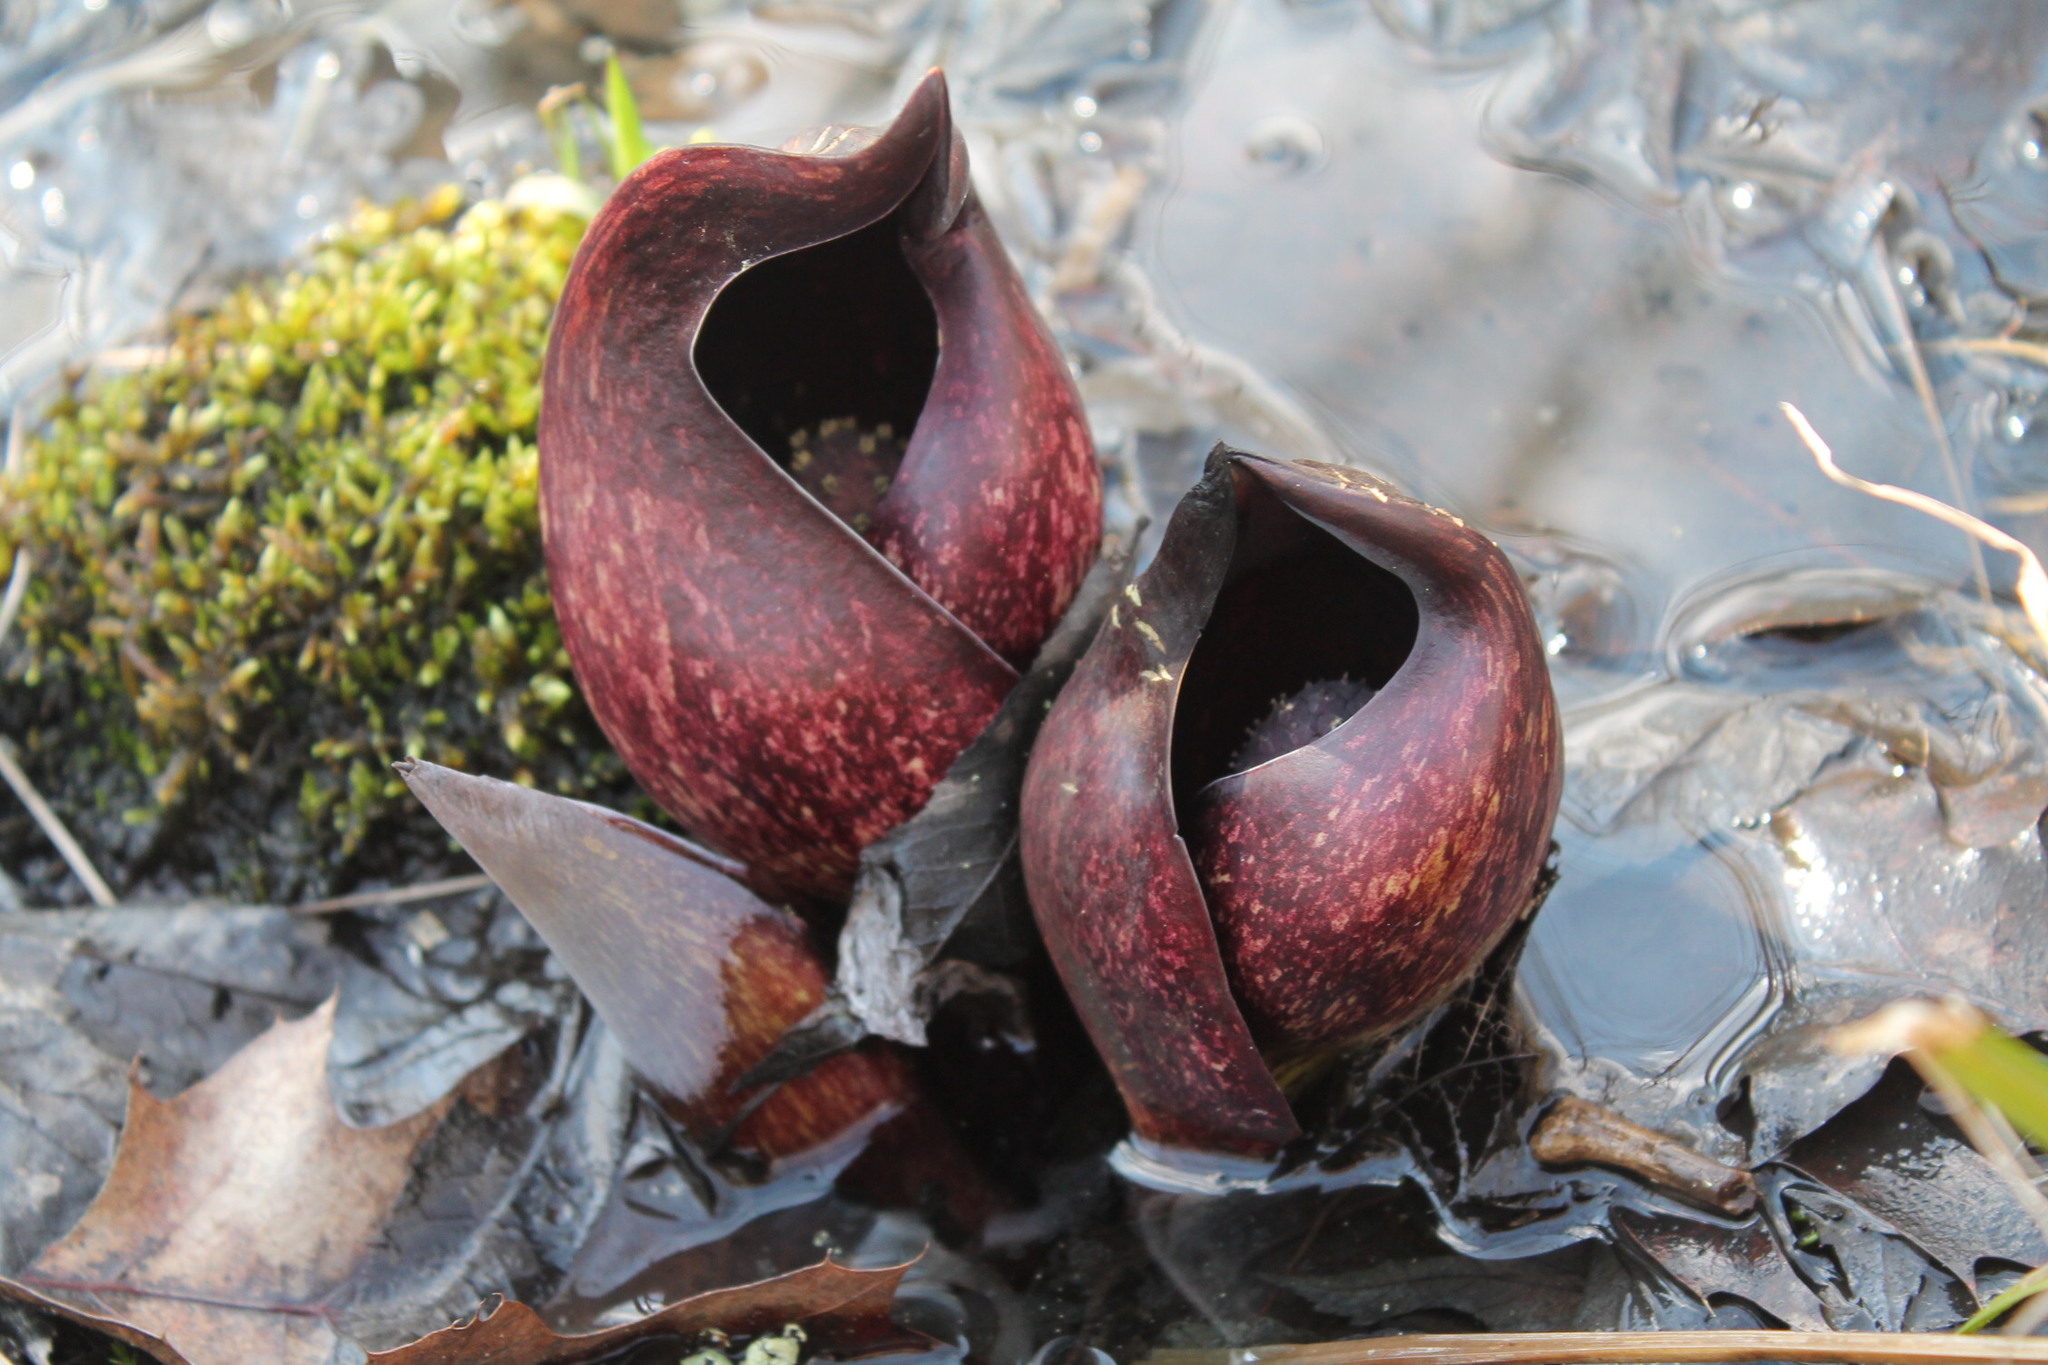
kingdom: Plantae
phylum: Tracheophyta
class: Liliopsida
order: Alismatales
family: Araceae
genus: Symplocarpus
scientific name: Symplocarpus foetidus
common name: Eastern skunk cabbage
